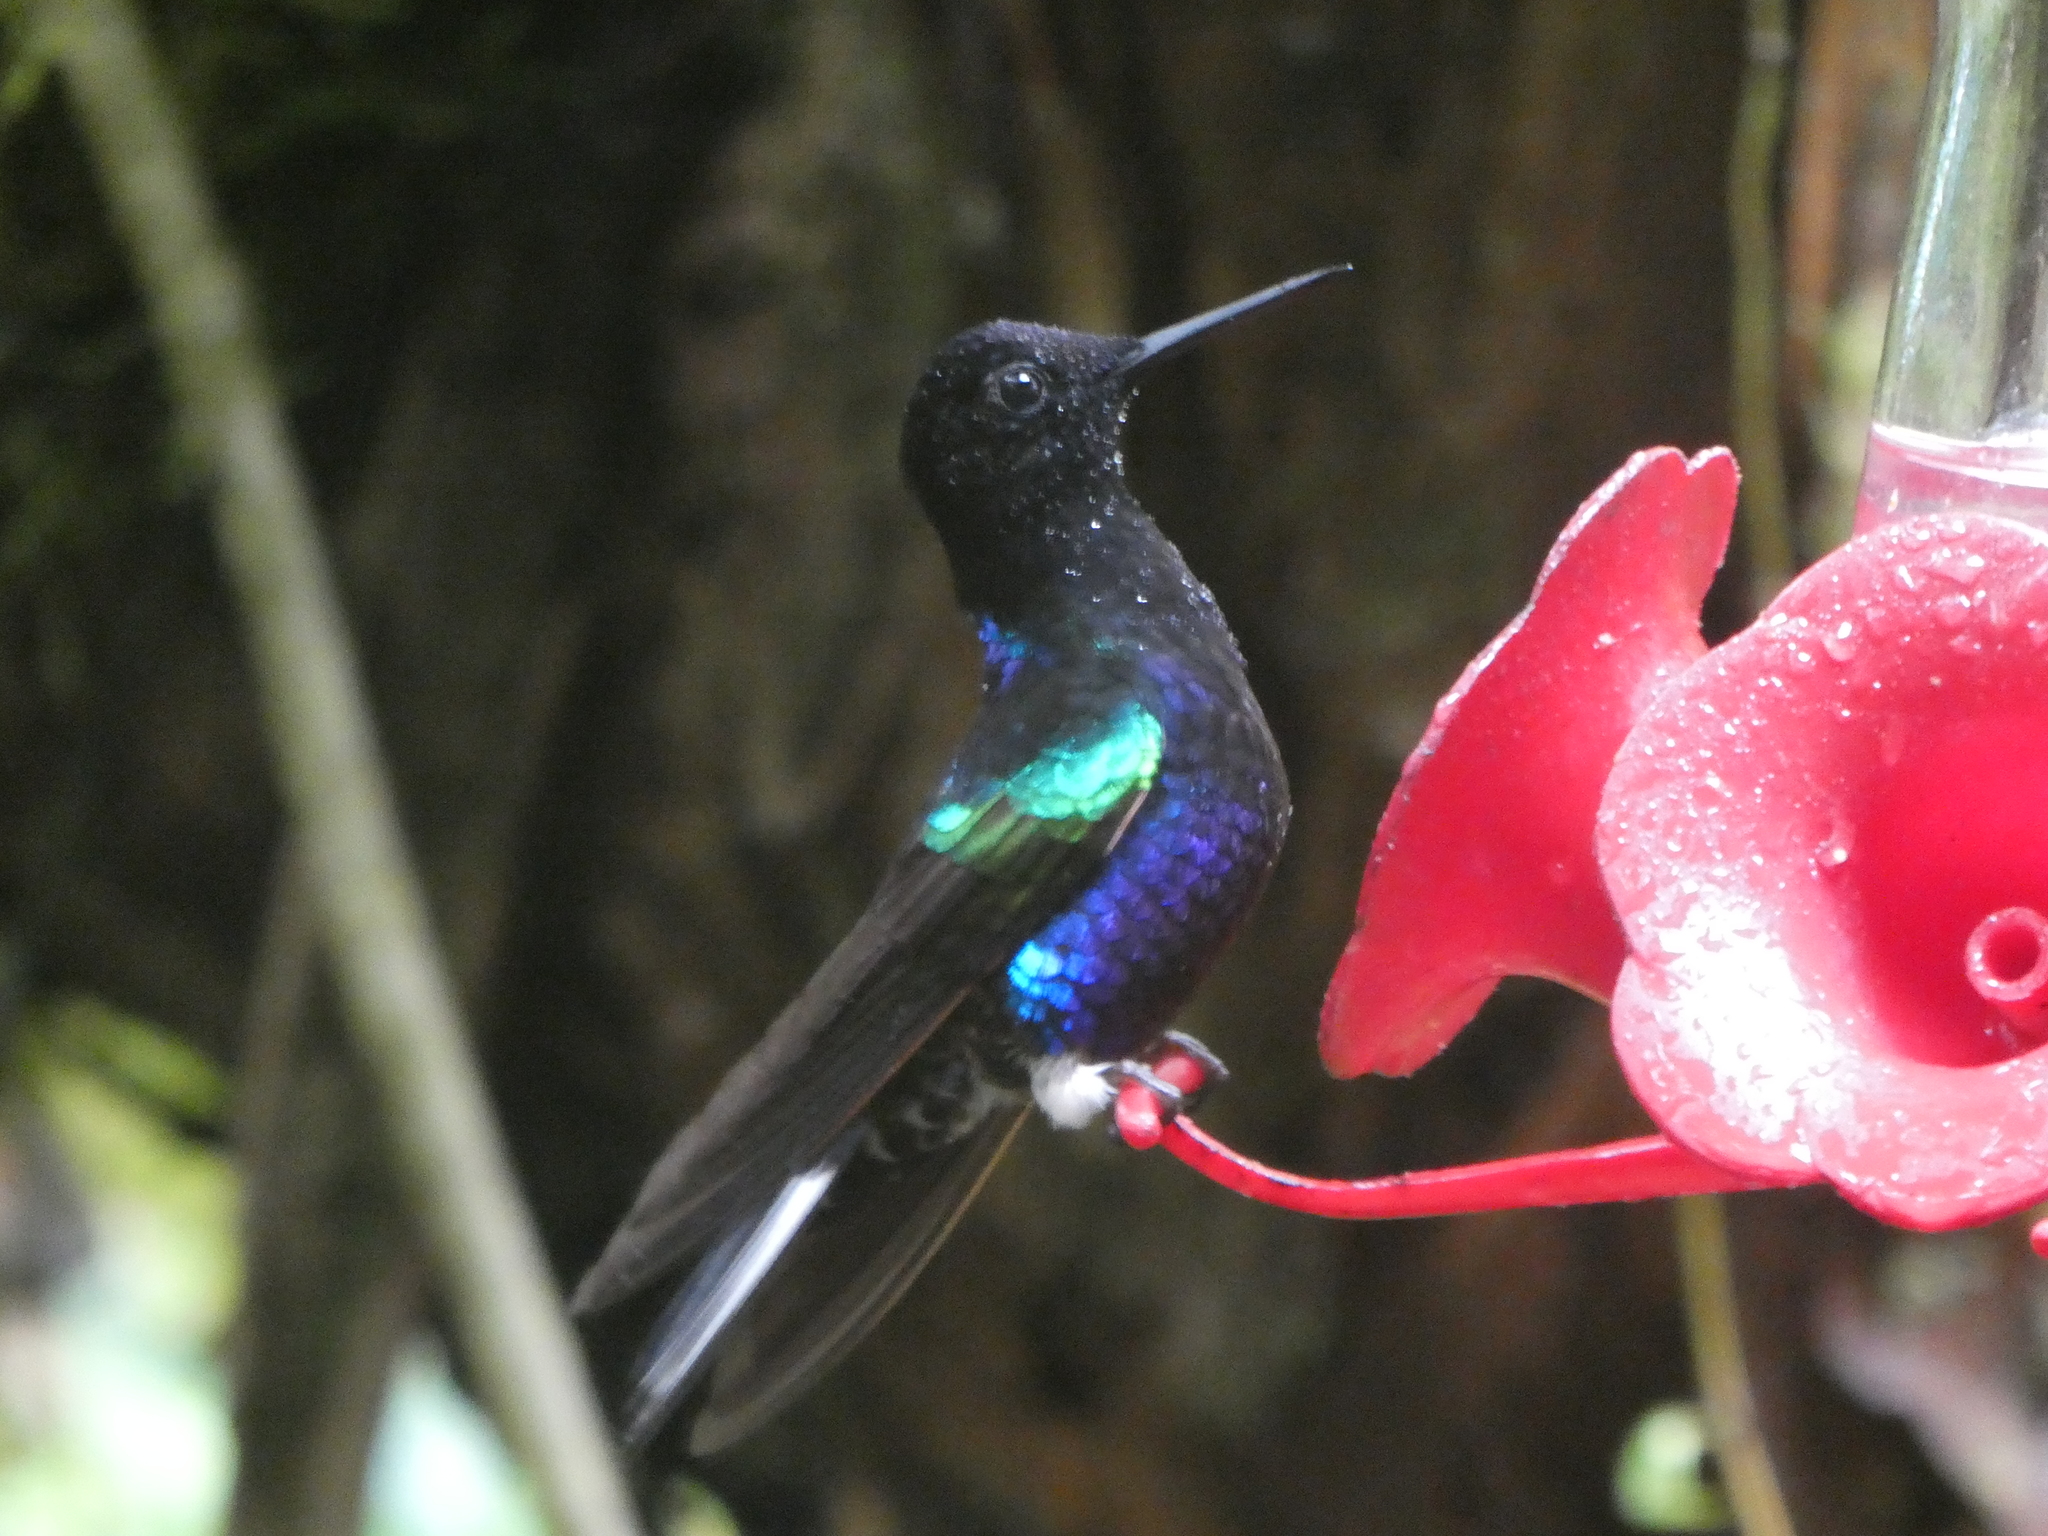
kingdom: Animalia
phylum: Chordata
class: Aves
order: Apodiformes
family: Trochilidae
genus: Boissonneaua
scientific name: Boissonneaua jardini
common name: Velvet-purple coronet
